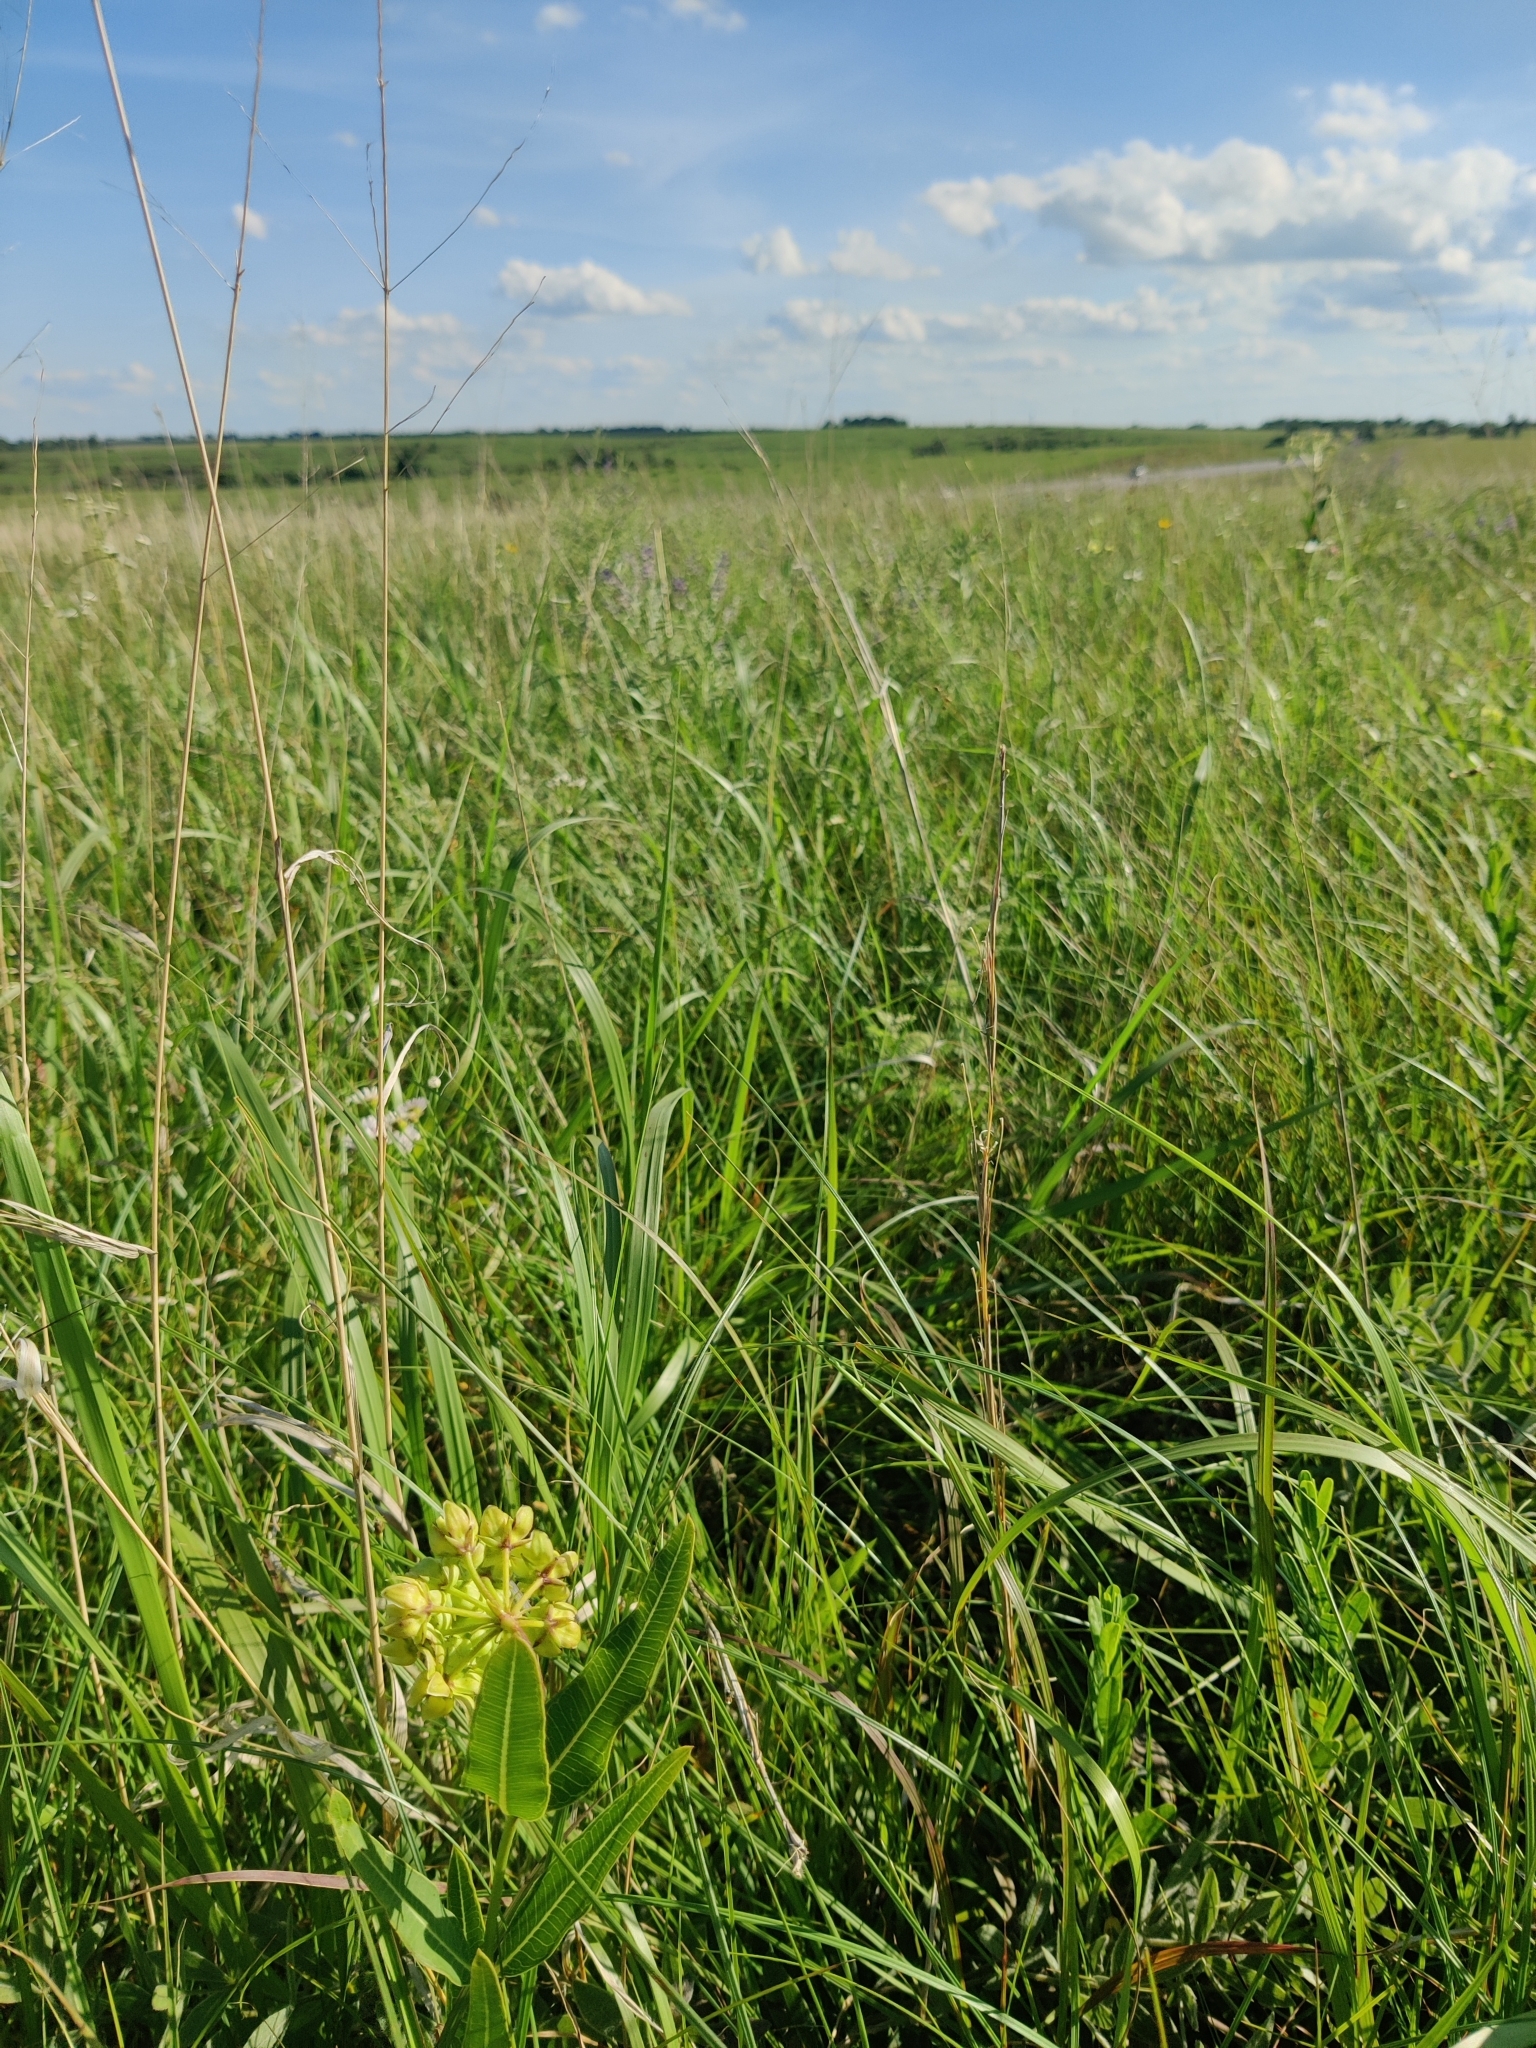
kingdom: Plantae
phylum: Tracheophyta
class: Magnoliopsida
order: Gentianales
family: Apocynaceae
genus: Asclepias
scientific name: Asclepias meadii
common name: Mead's milkweed
